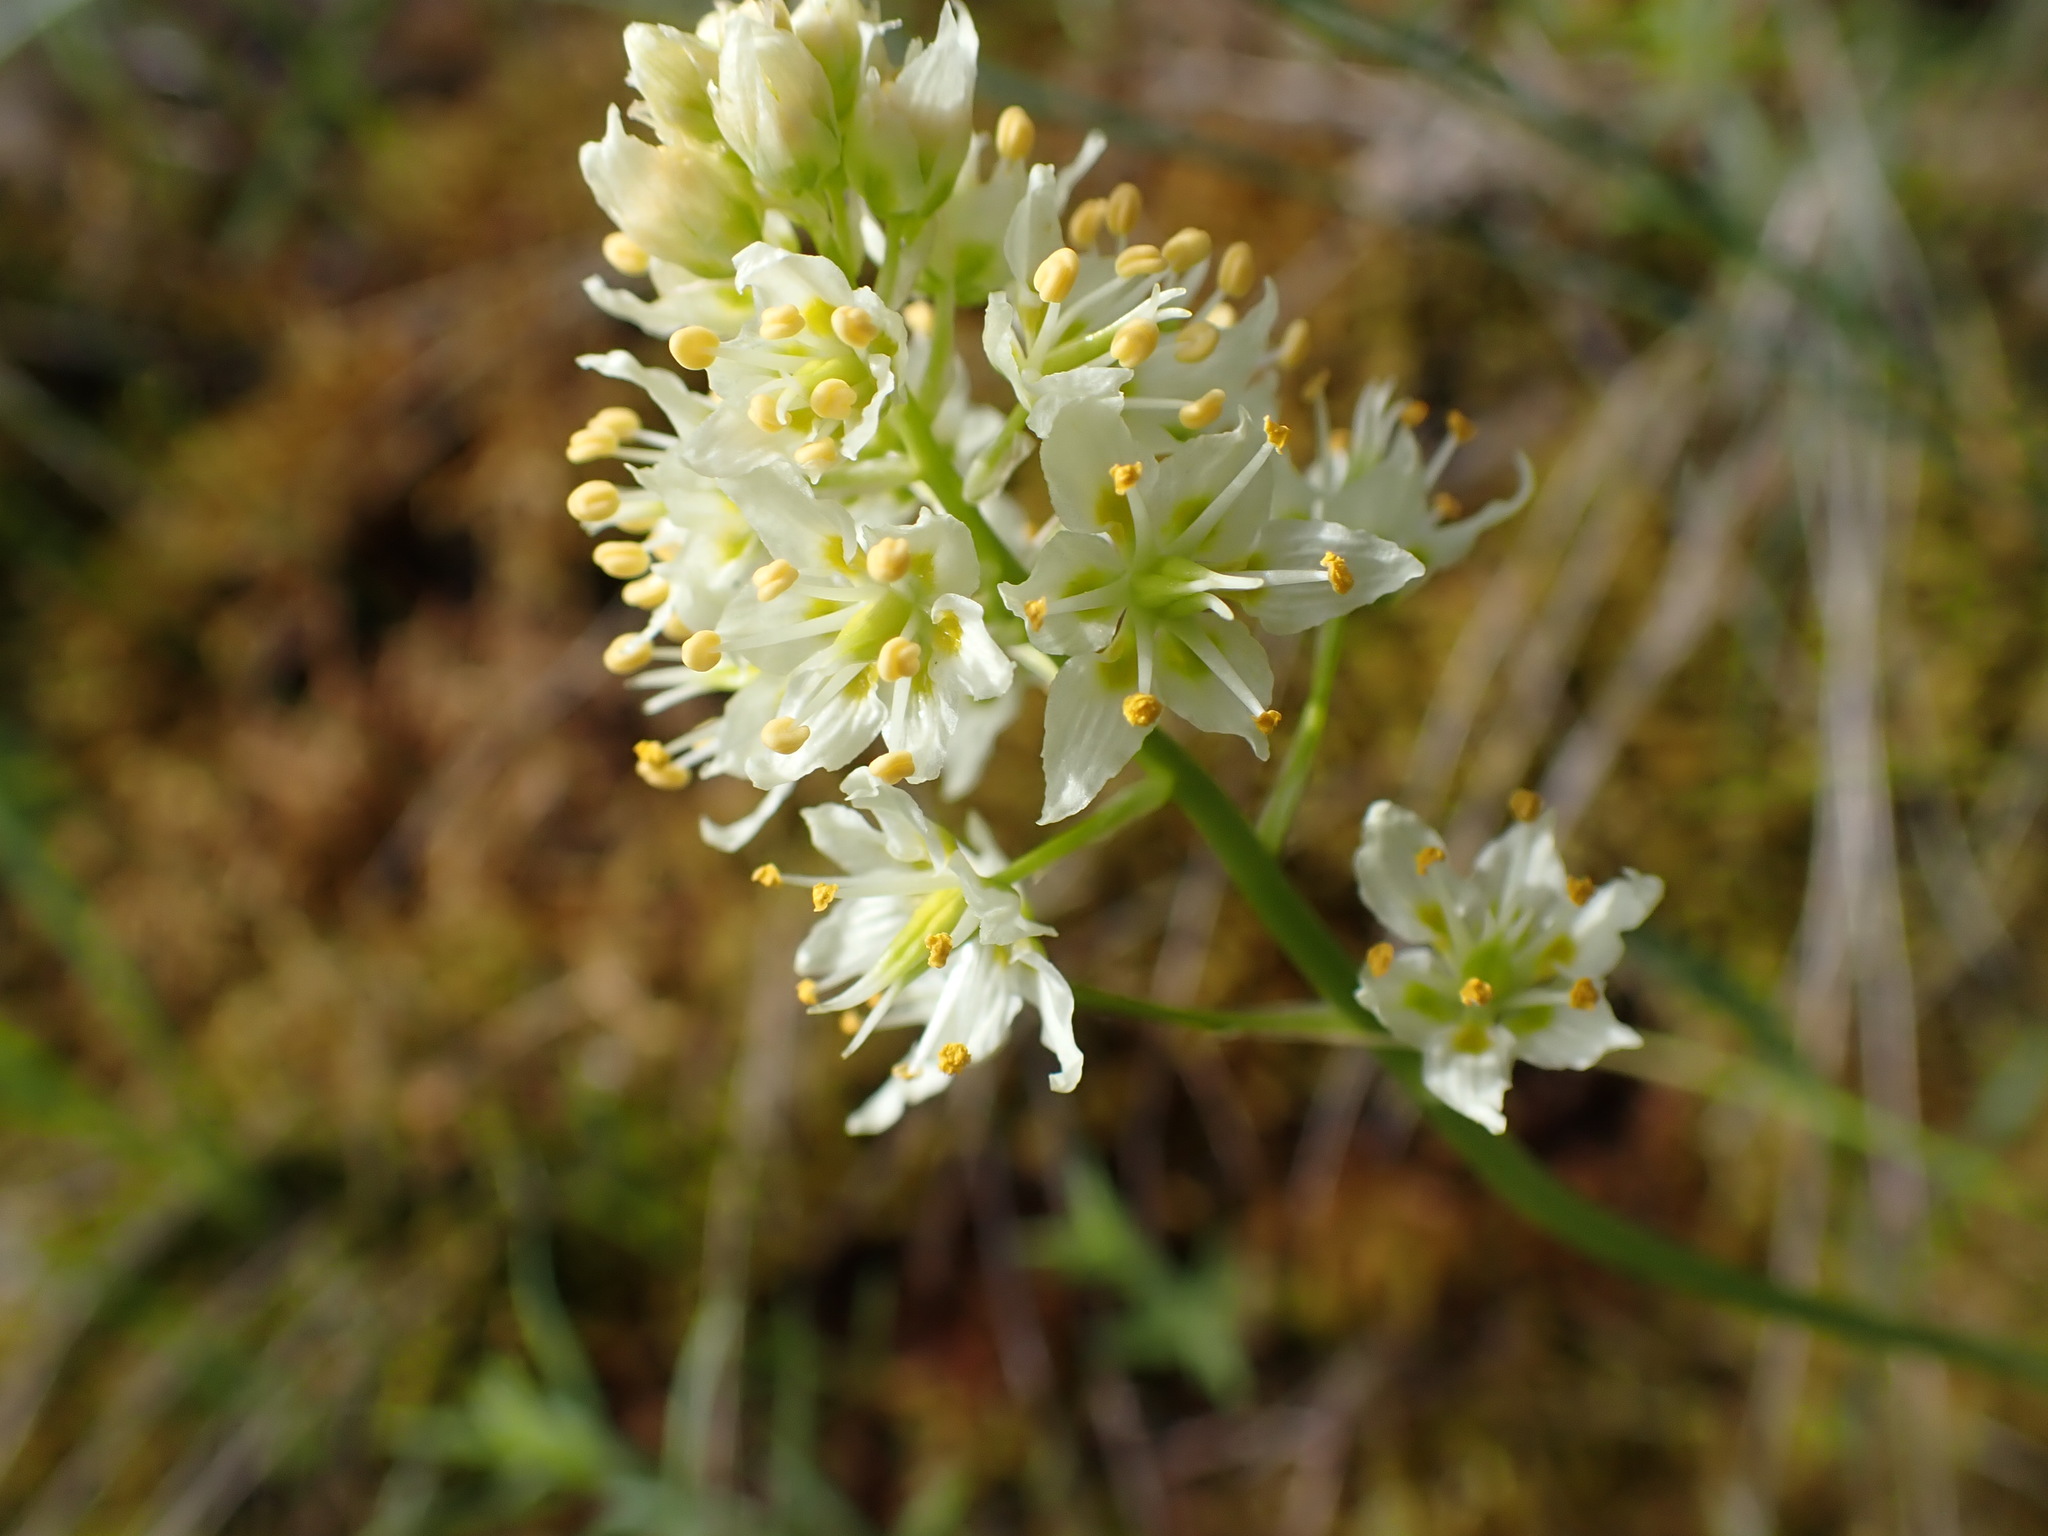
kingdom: Plantae
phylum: Tracheophyta
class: Liliopsida
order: Liliales
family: Melanthiaceae
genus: Toxicoscordion
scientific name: Toxicoscordion venenosum
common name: Meadow death camas
